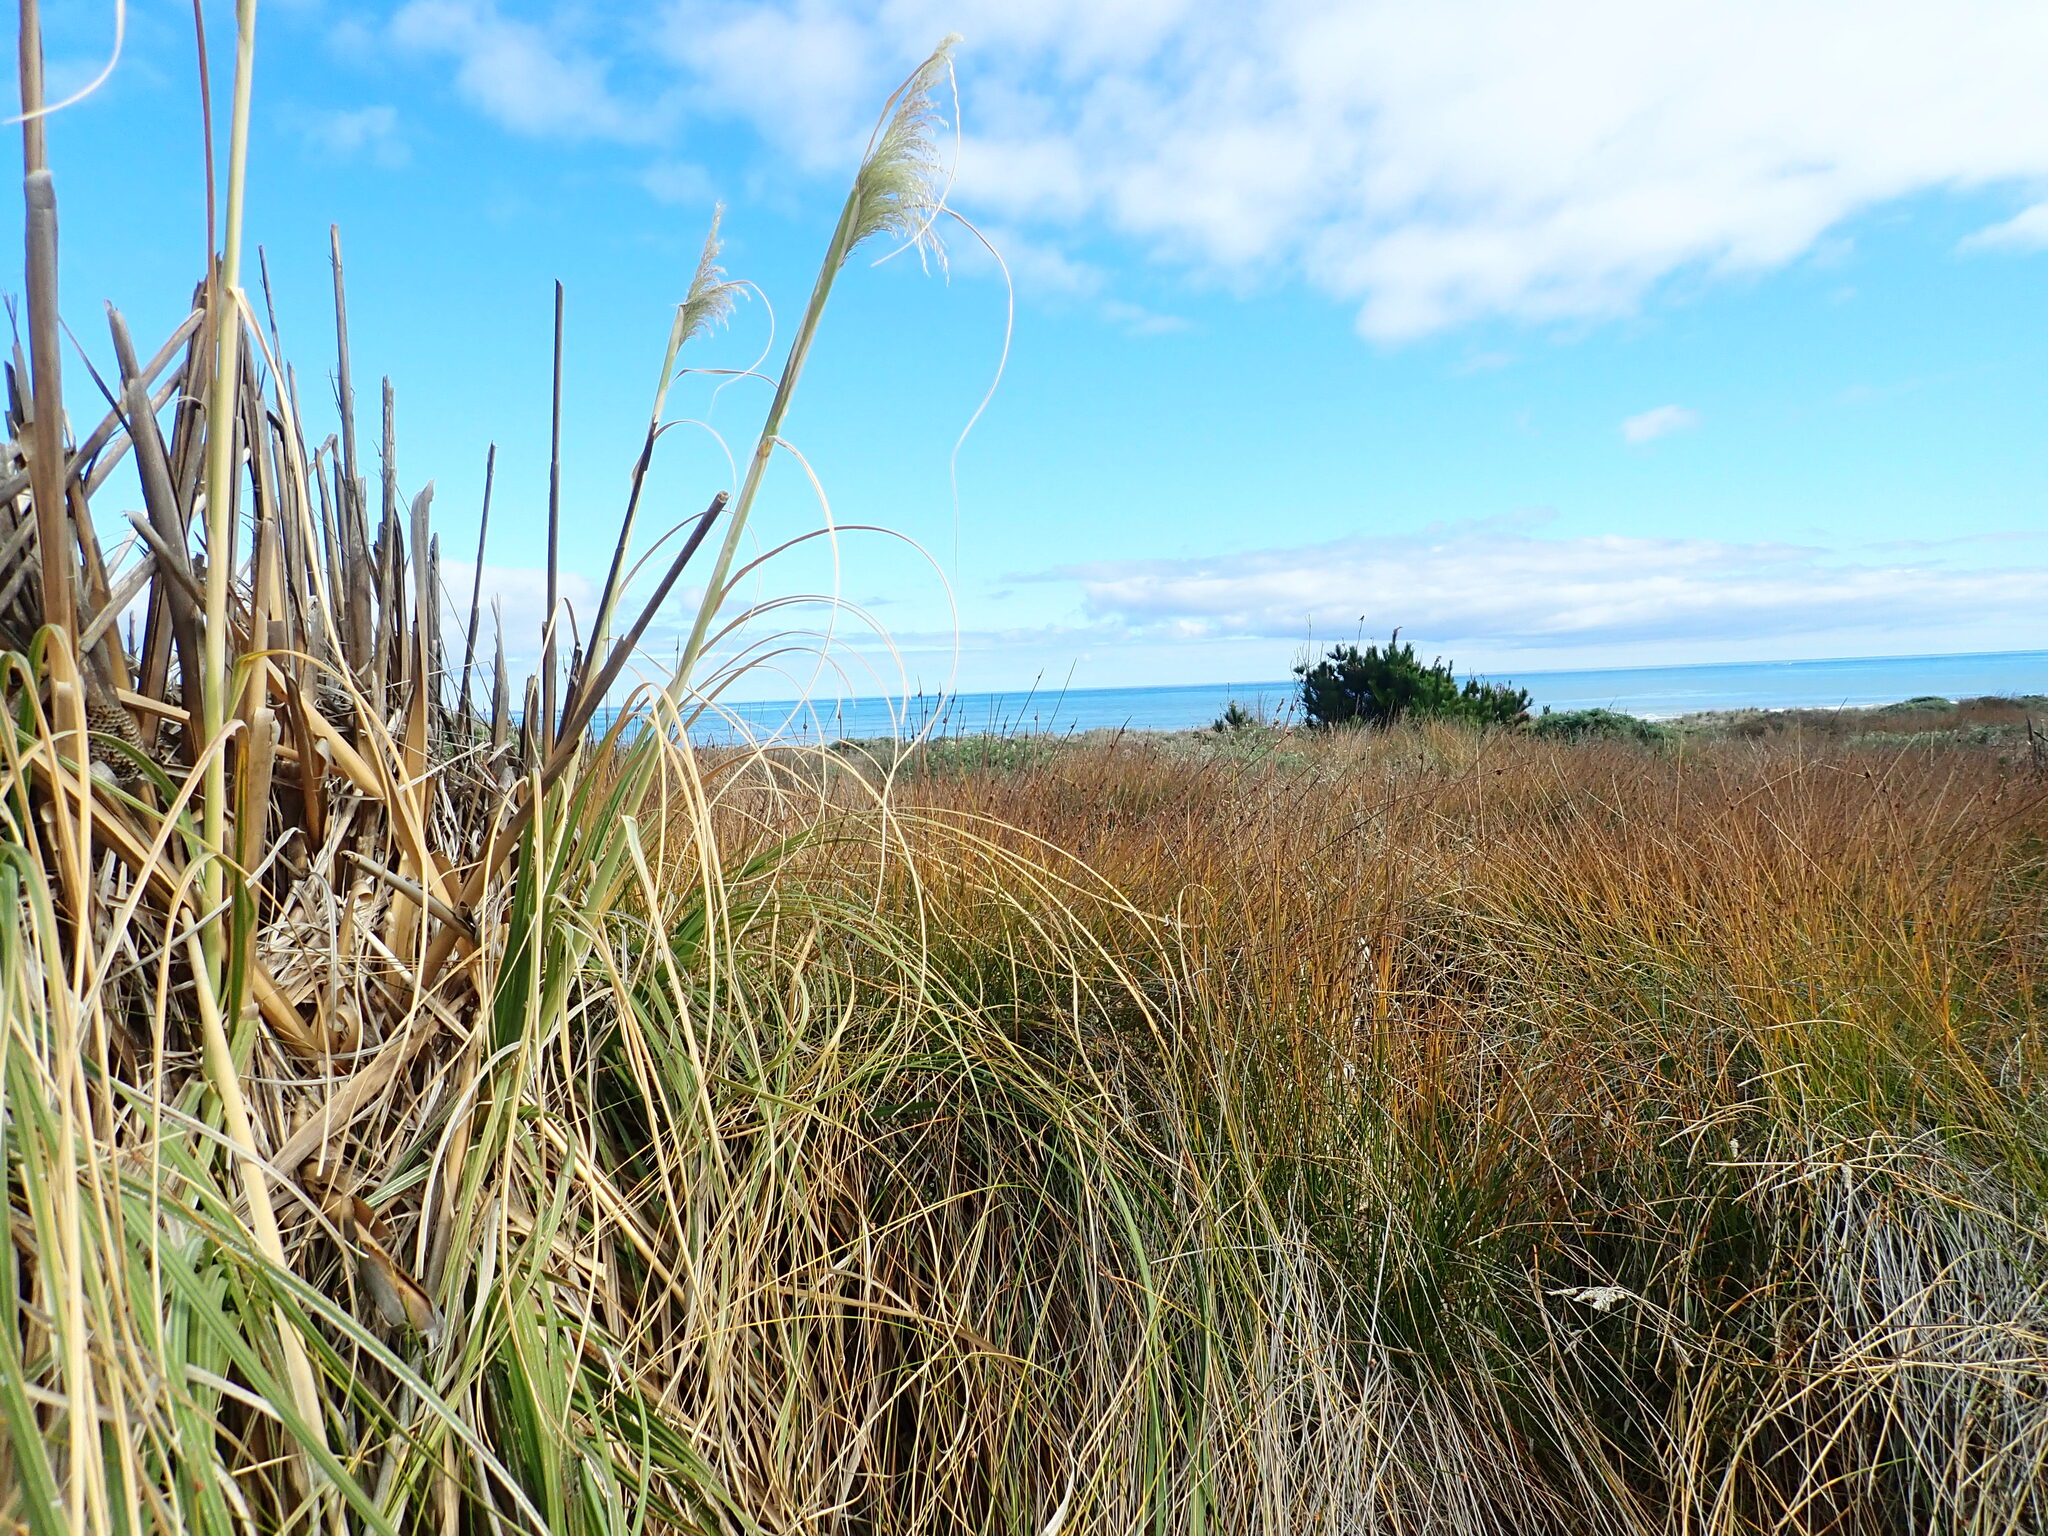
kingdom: Plantae
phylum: Tracheophyta
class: Liliopsida
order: Poales
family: Poaceae
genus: Cortaderia
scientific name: Cortaderia selloana
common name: Uruguayan pampas grass
